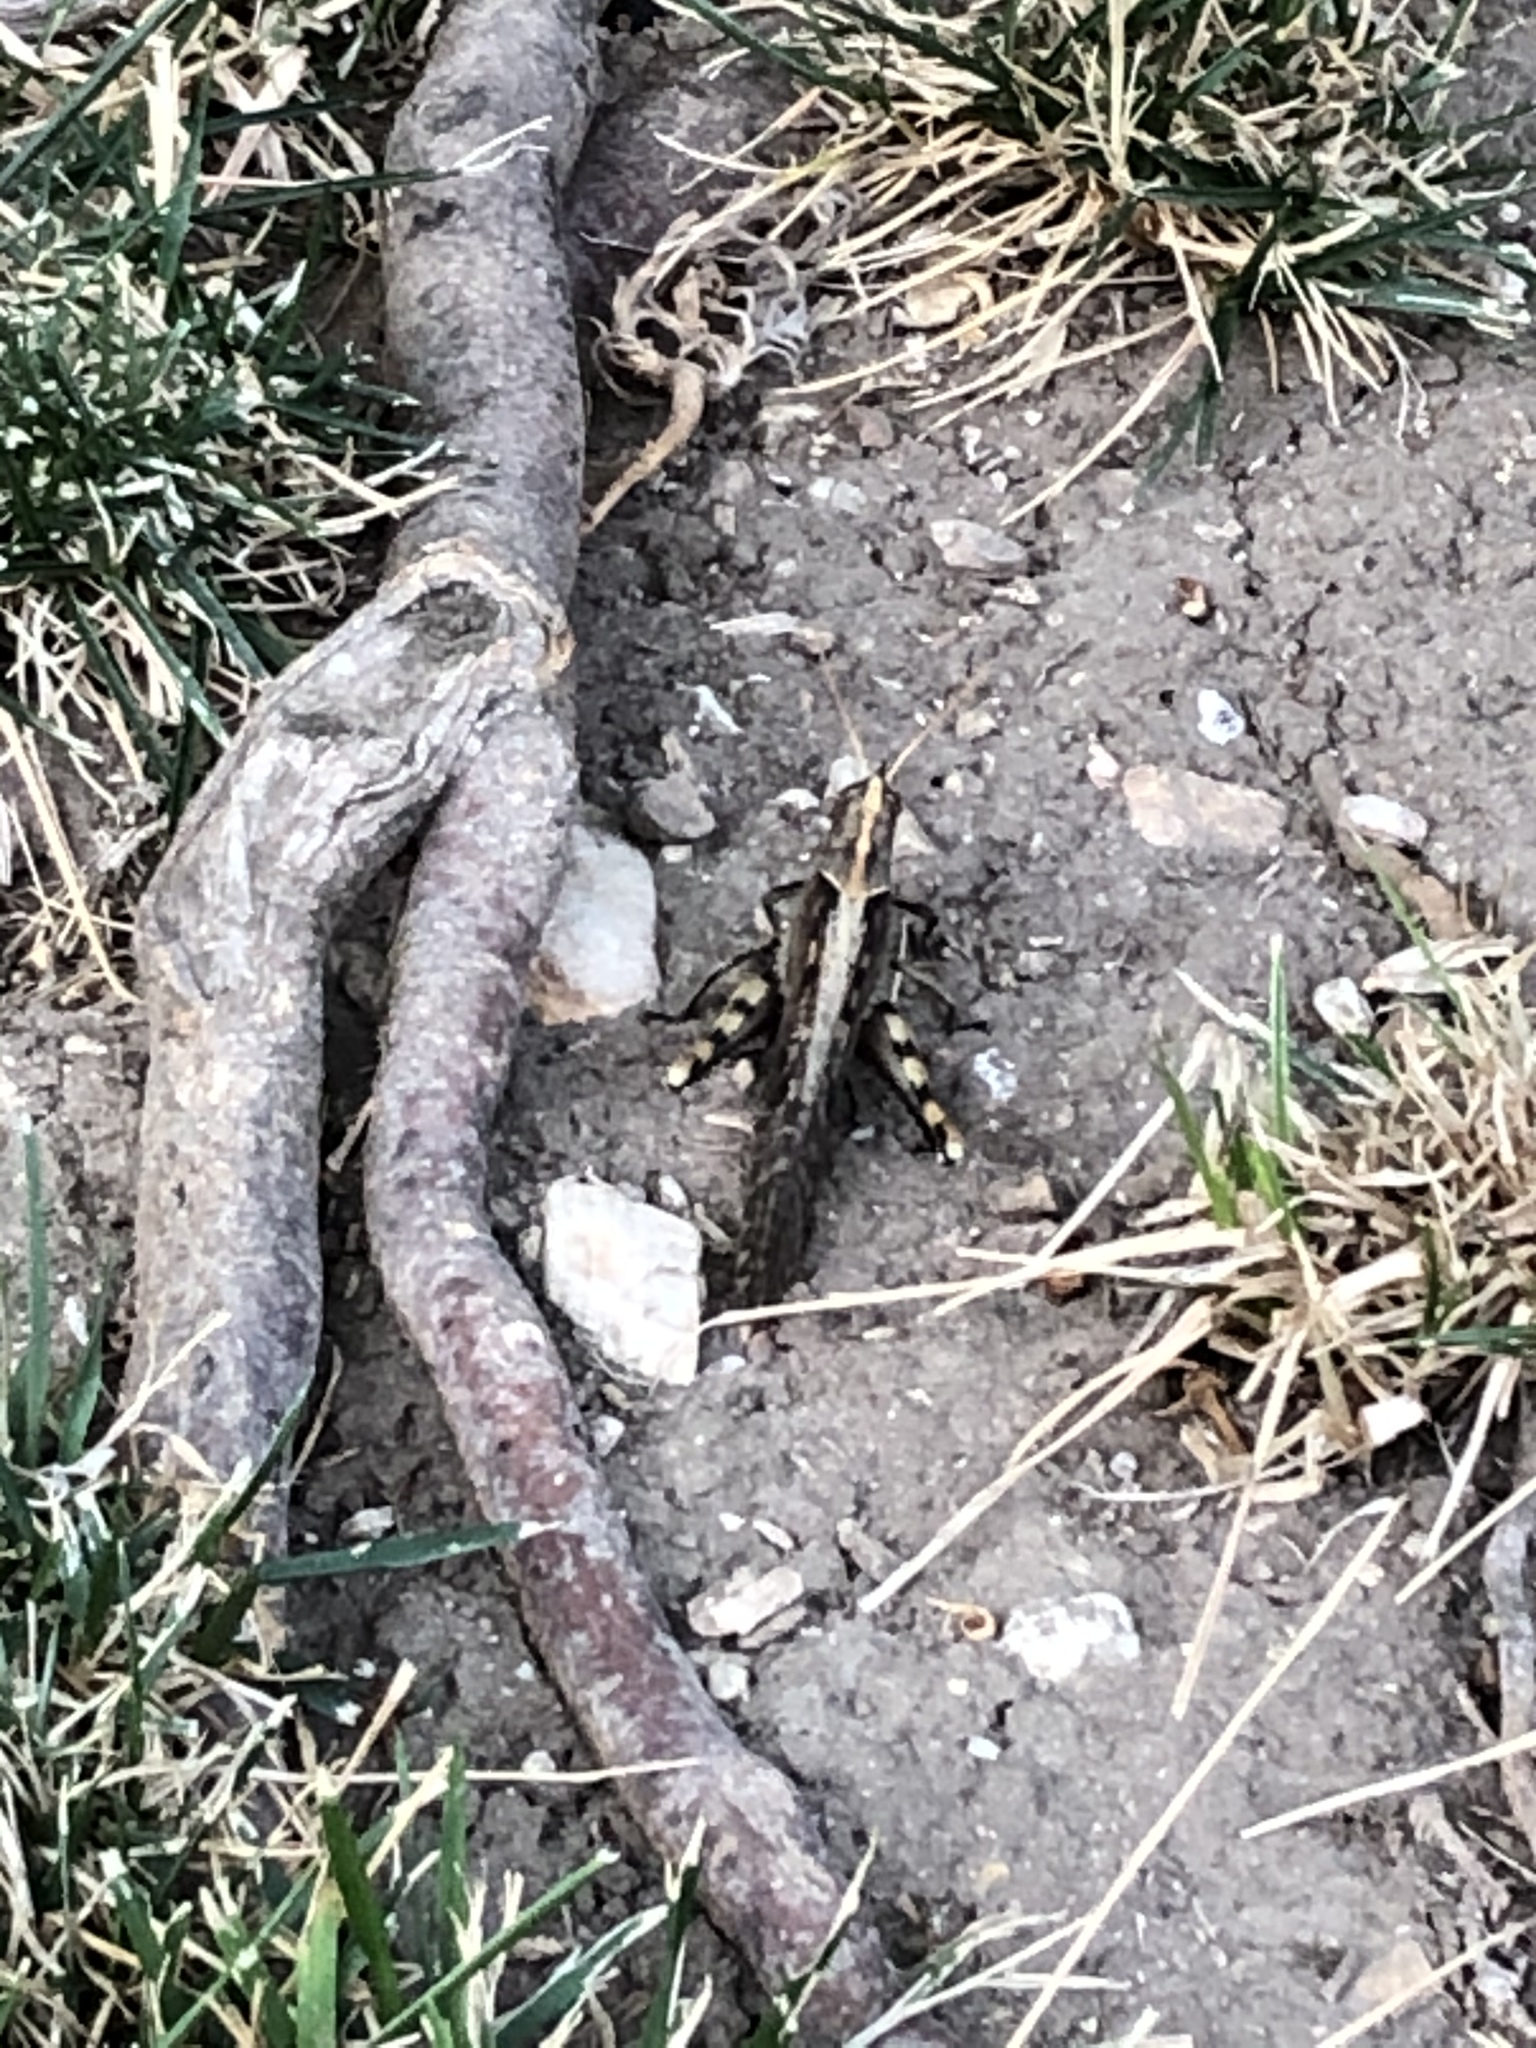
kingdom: Animalia
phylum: Arthropoda
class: Insecta
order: Orthoptera
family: Acrididae
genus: Schistocerca
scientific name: Schistocerca nitens
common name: Vagrant grasshopper
